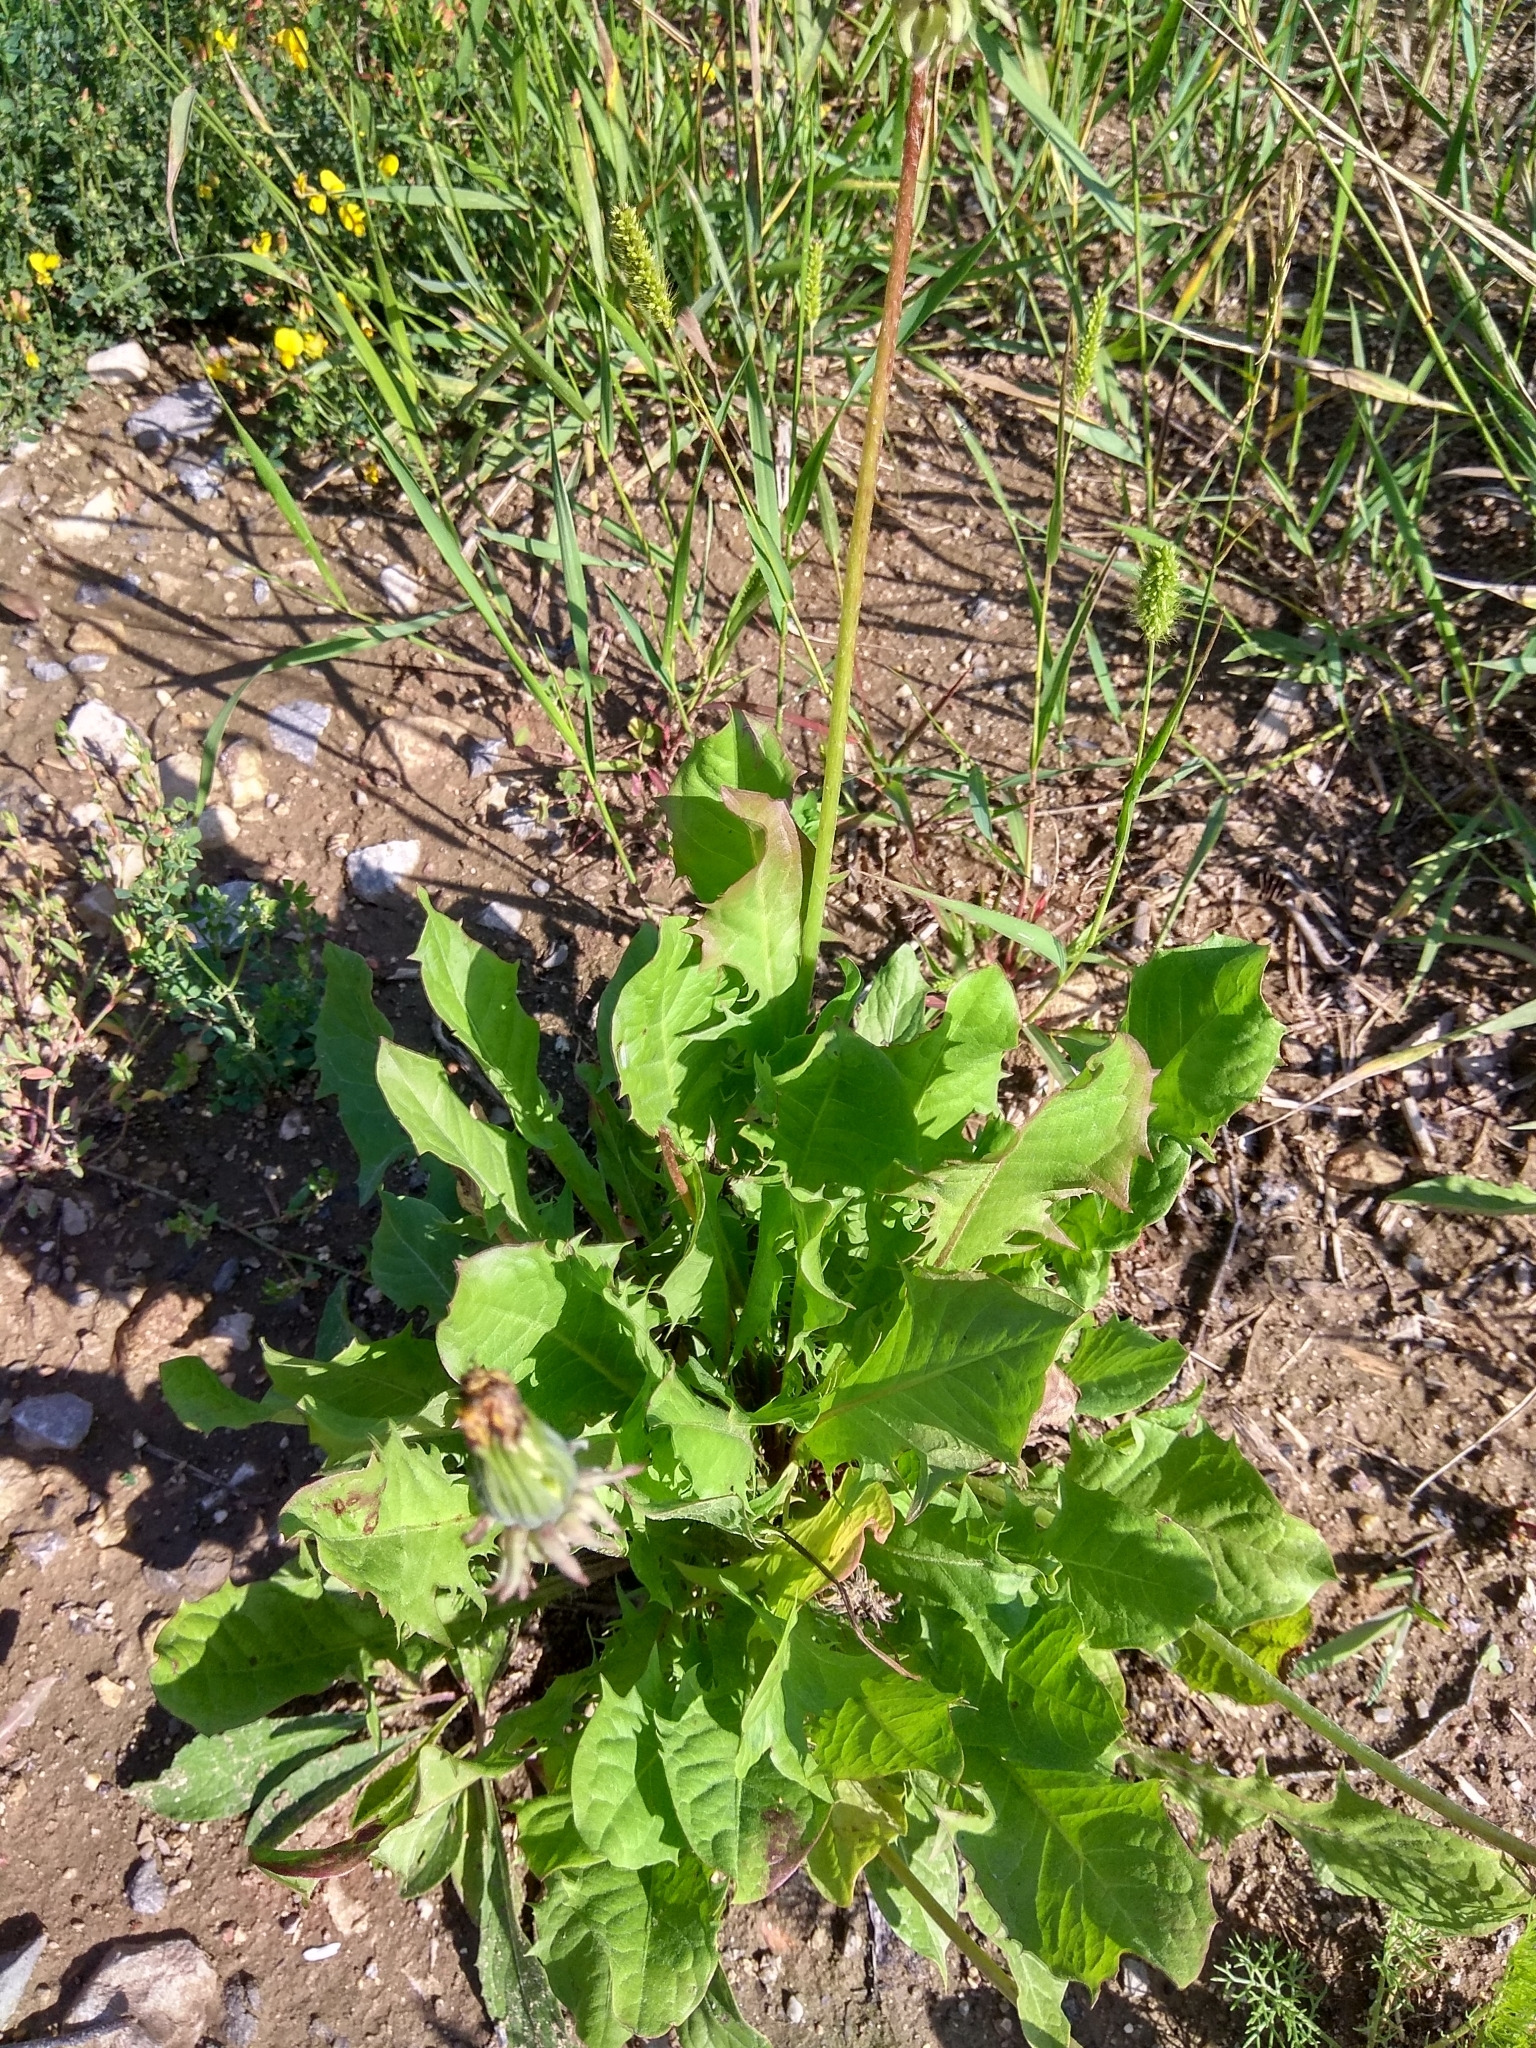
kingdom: Plantae
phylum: Tracheophyta
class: Magnoliopsida
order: Asterales
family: Asteraceae
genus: Taraxacum
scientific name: Taraxacum officinale
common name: Common dandelion
